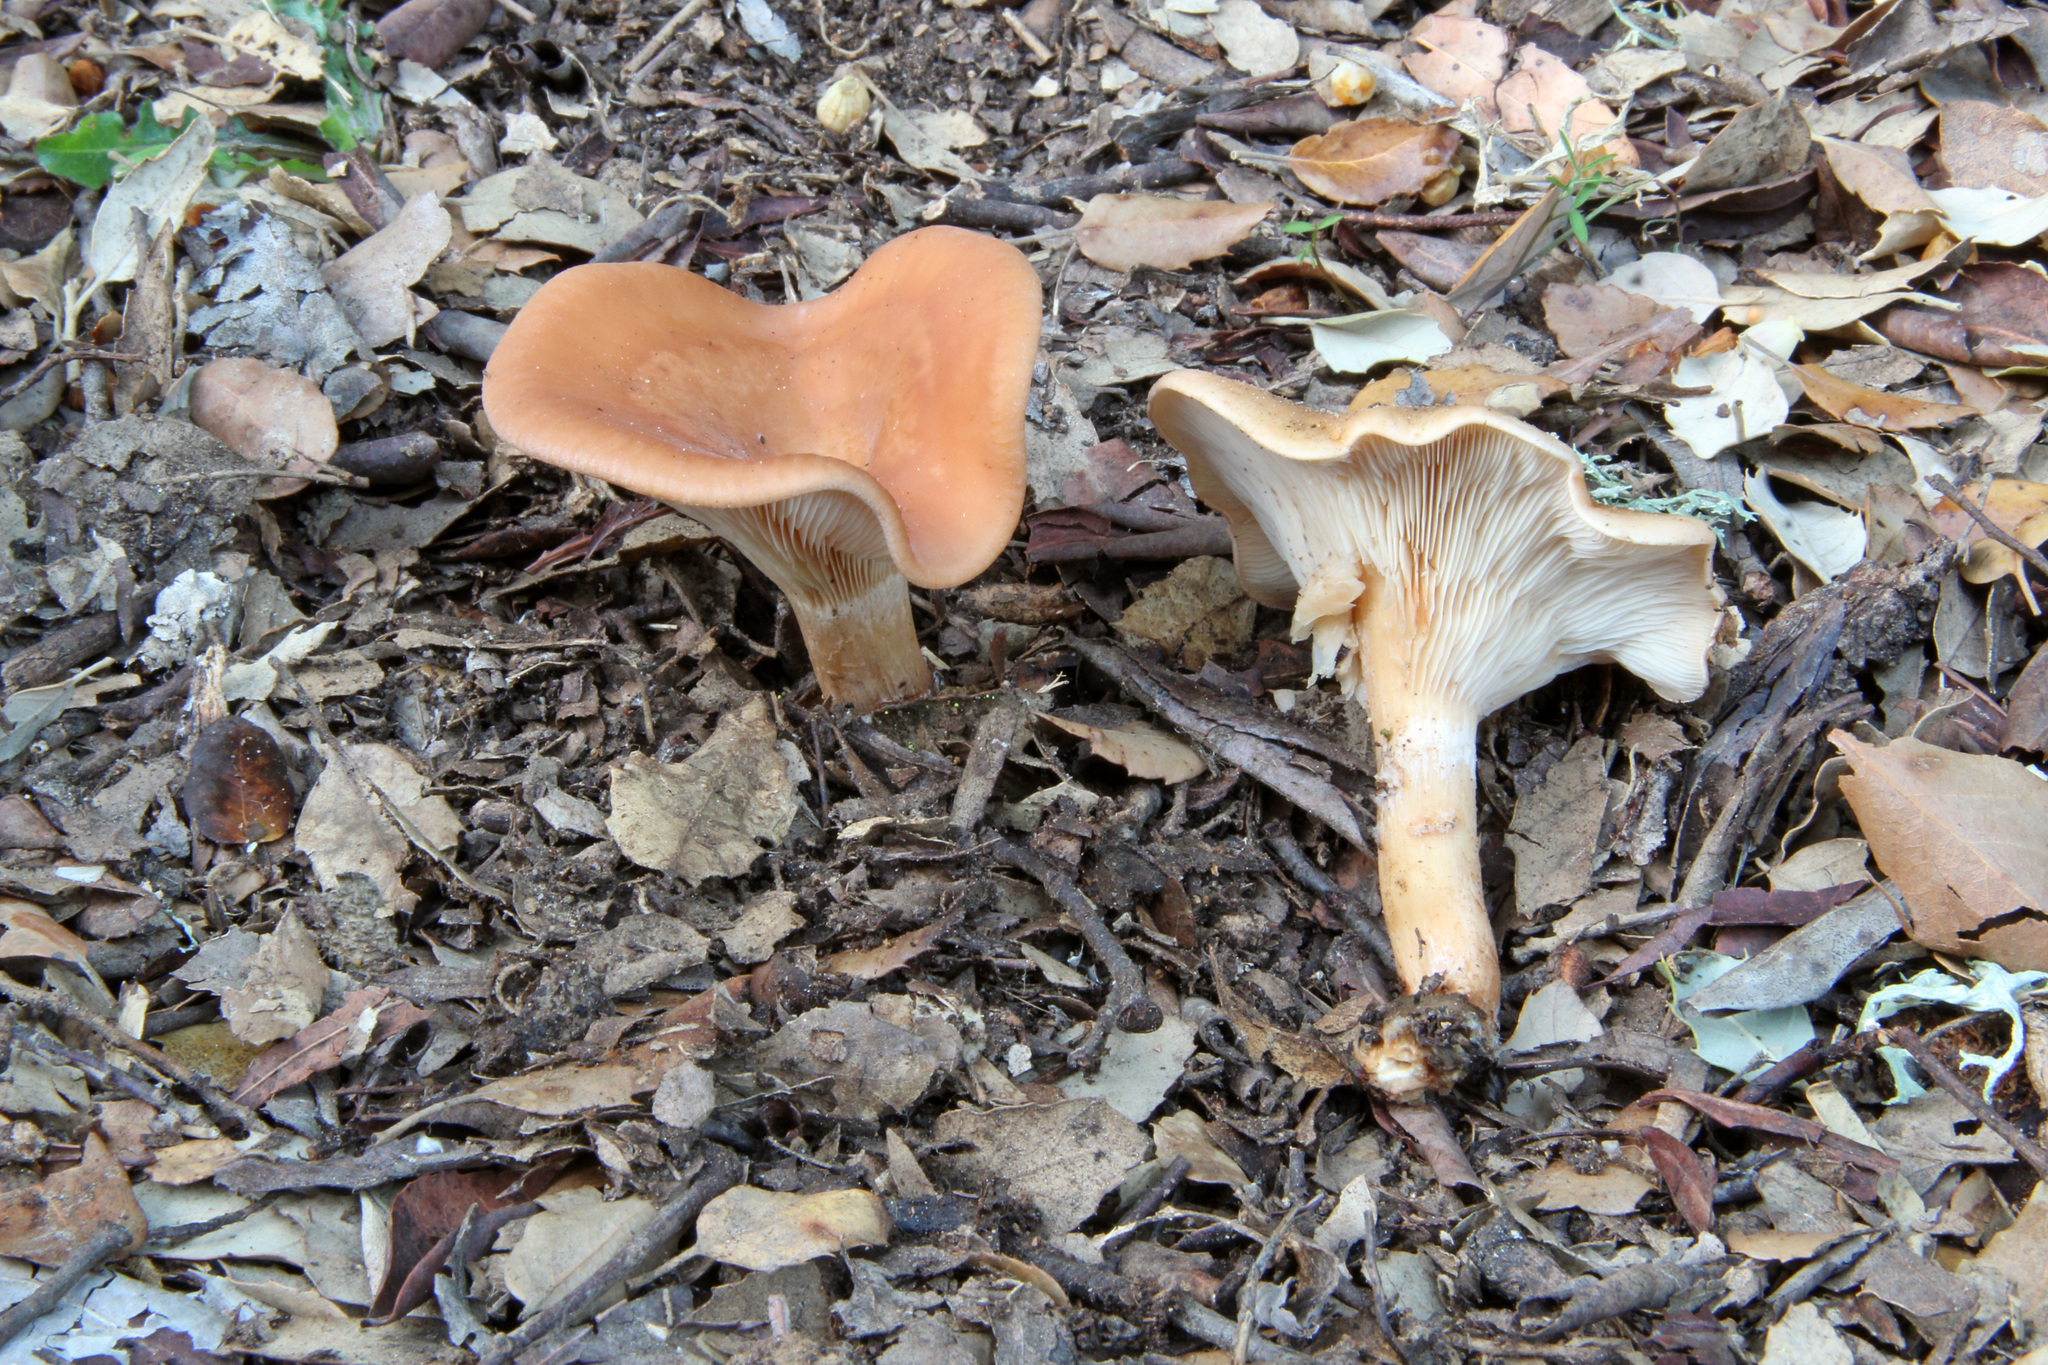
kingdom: Fungi
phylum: Basidiomycota
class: Agaricomycetes
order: Agaricales
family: Tricholomataceae
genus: Paralepista
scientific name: Paralepista flaccida
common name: Tawny funnel cap
